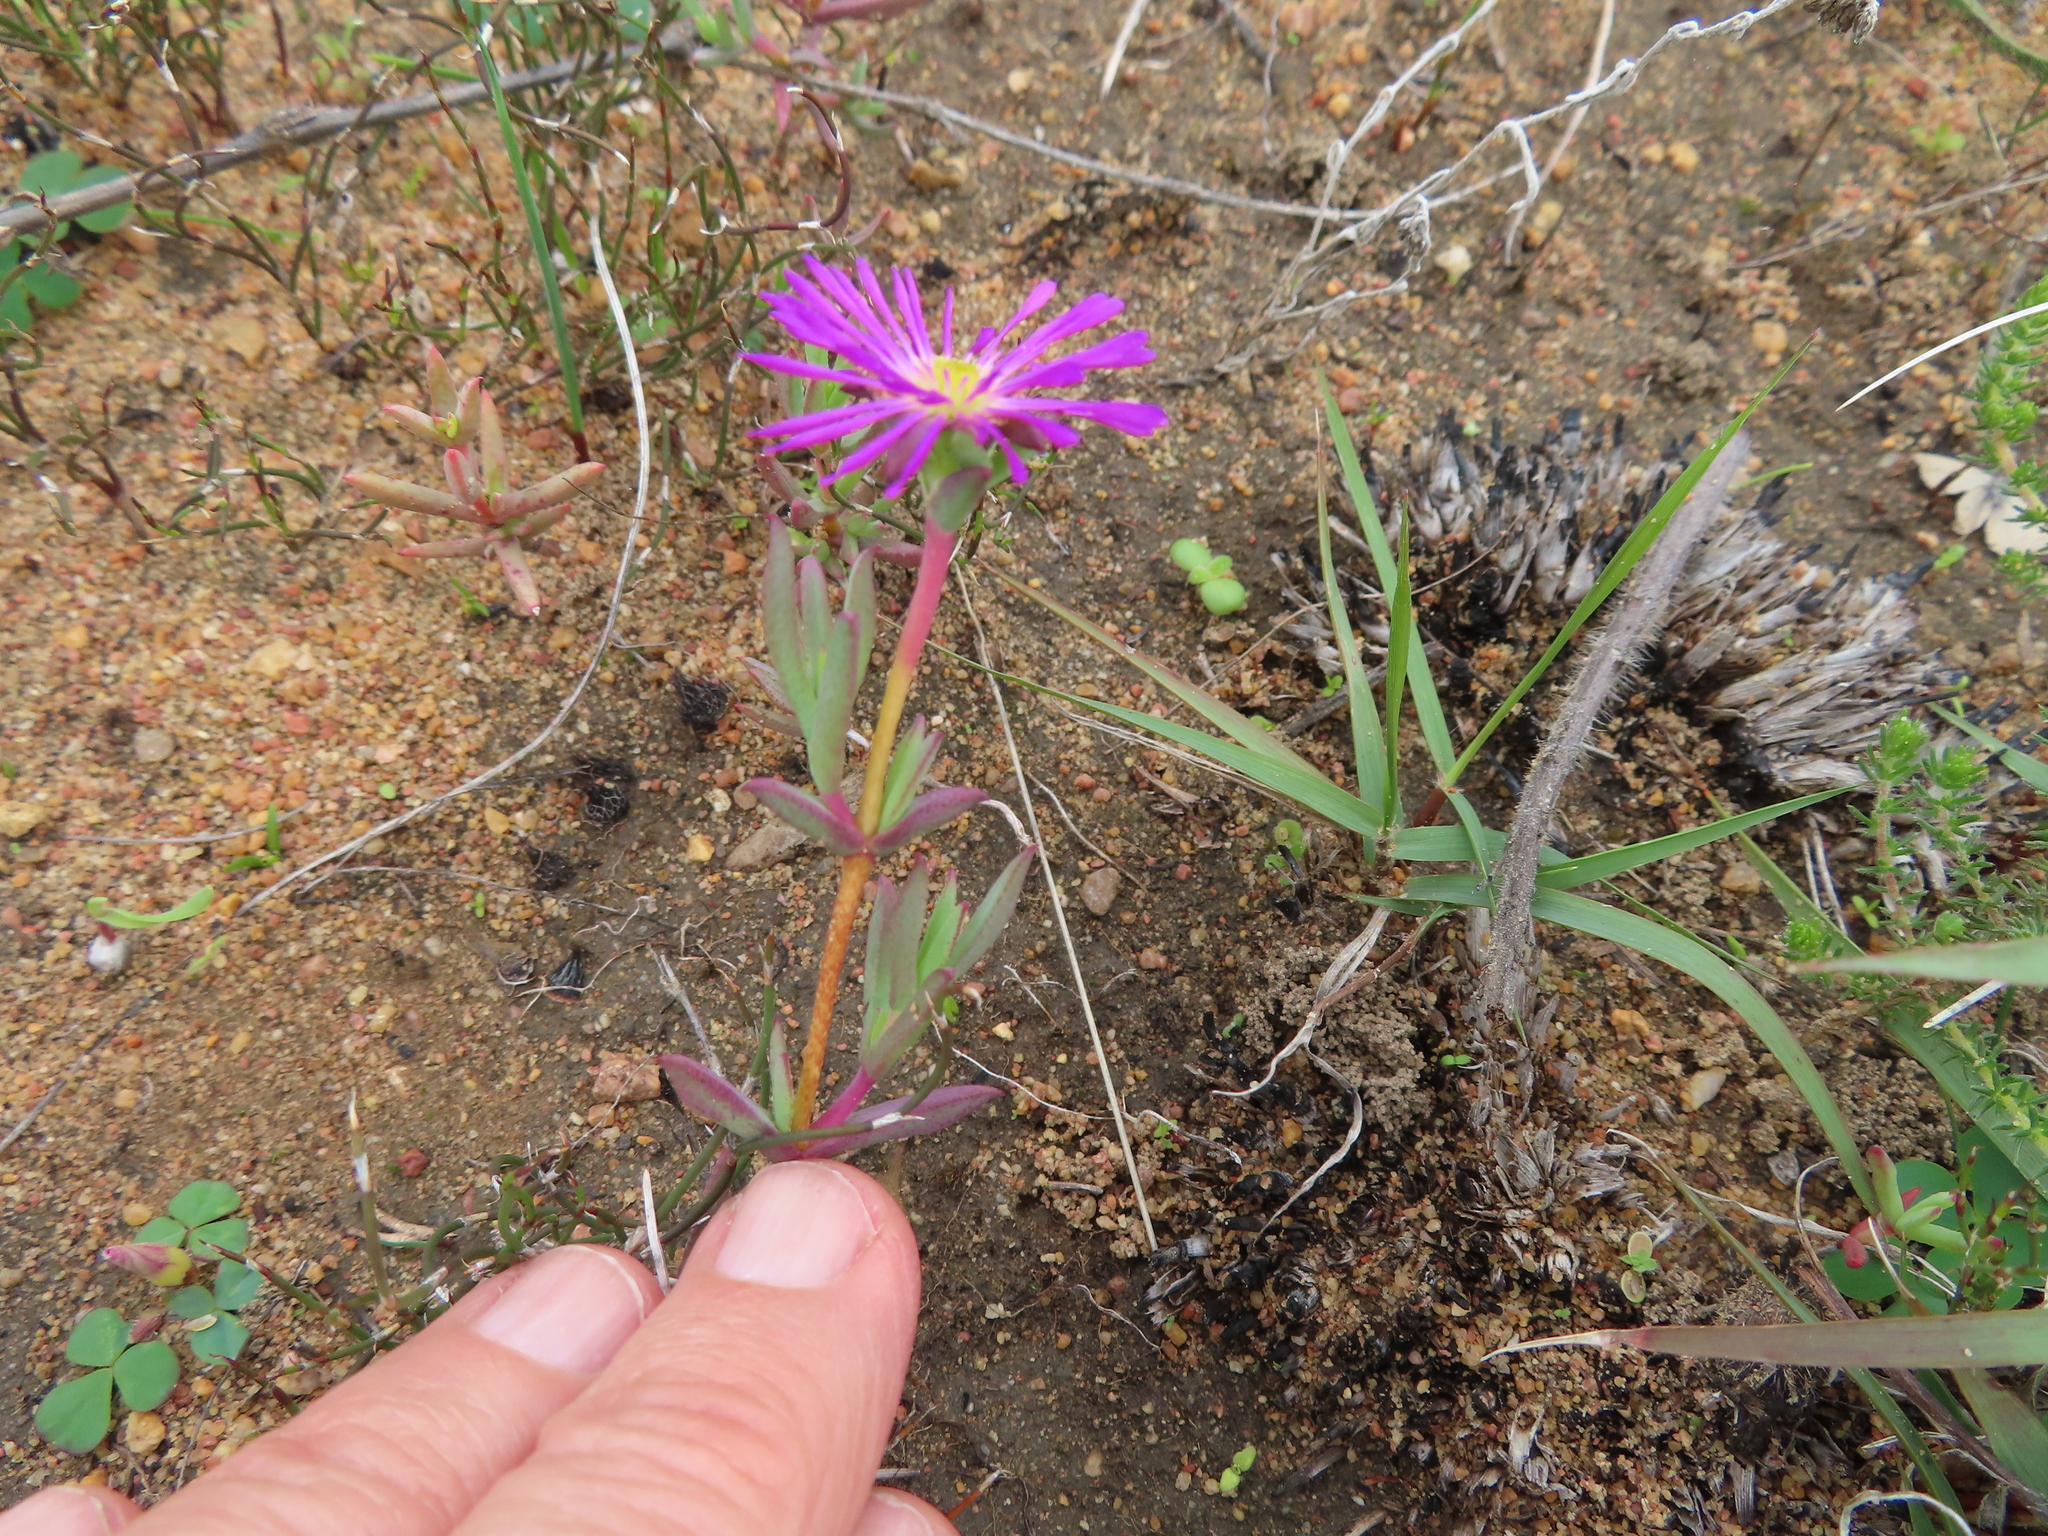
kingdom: Plantae
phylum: Tracheophyta
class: Magnoliopsida
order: Caryophyllales
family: Aizoaceae
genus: Erepsia
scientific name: Erepsia anceps
